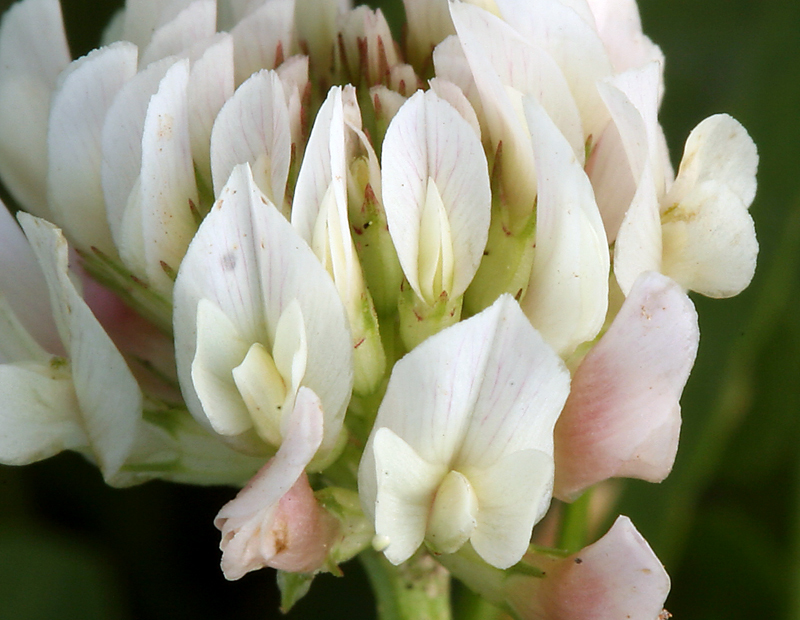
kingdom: Plantae
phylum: Tracheophyta
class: Magnoliopsida
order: Fabales
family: Fabaceae
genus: Trifolium
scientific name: Trifolium repens
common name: White clover
